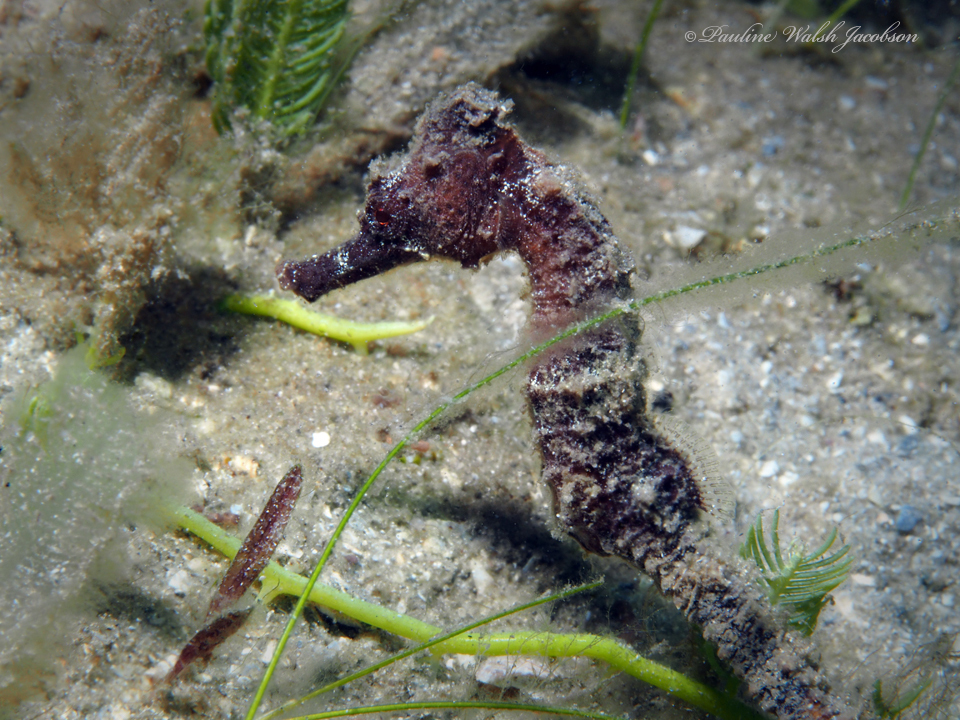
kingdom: Animalia
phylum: Chordata
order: Syngnathiformes
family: Syngnathidae
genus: Hippocampus
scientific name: Hippocampus reidi
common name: Slender seahorse
